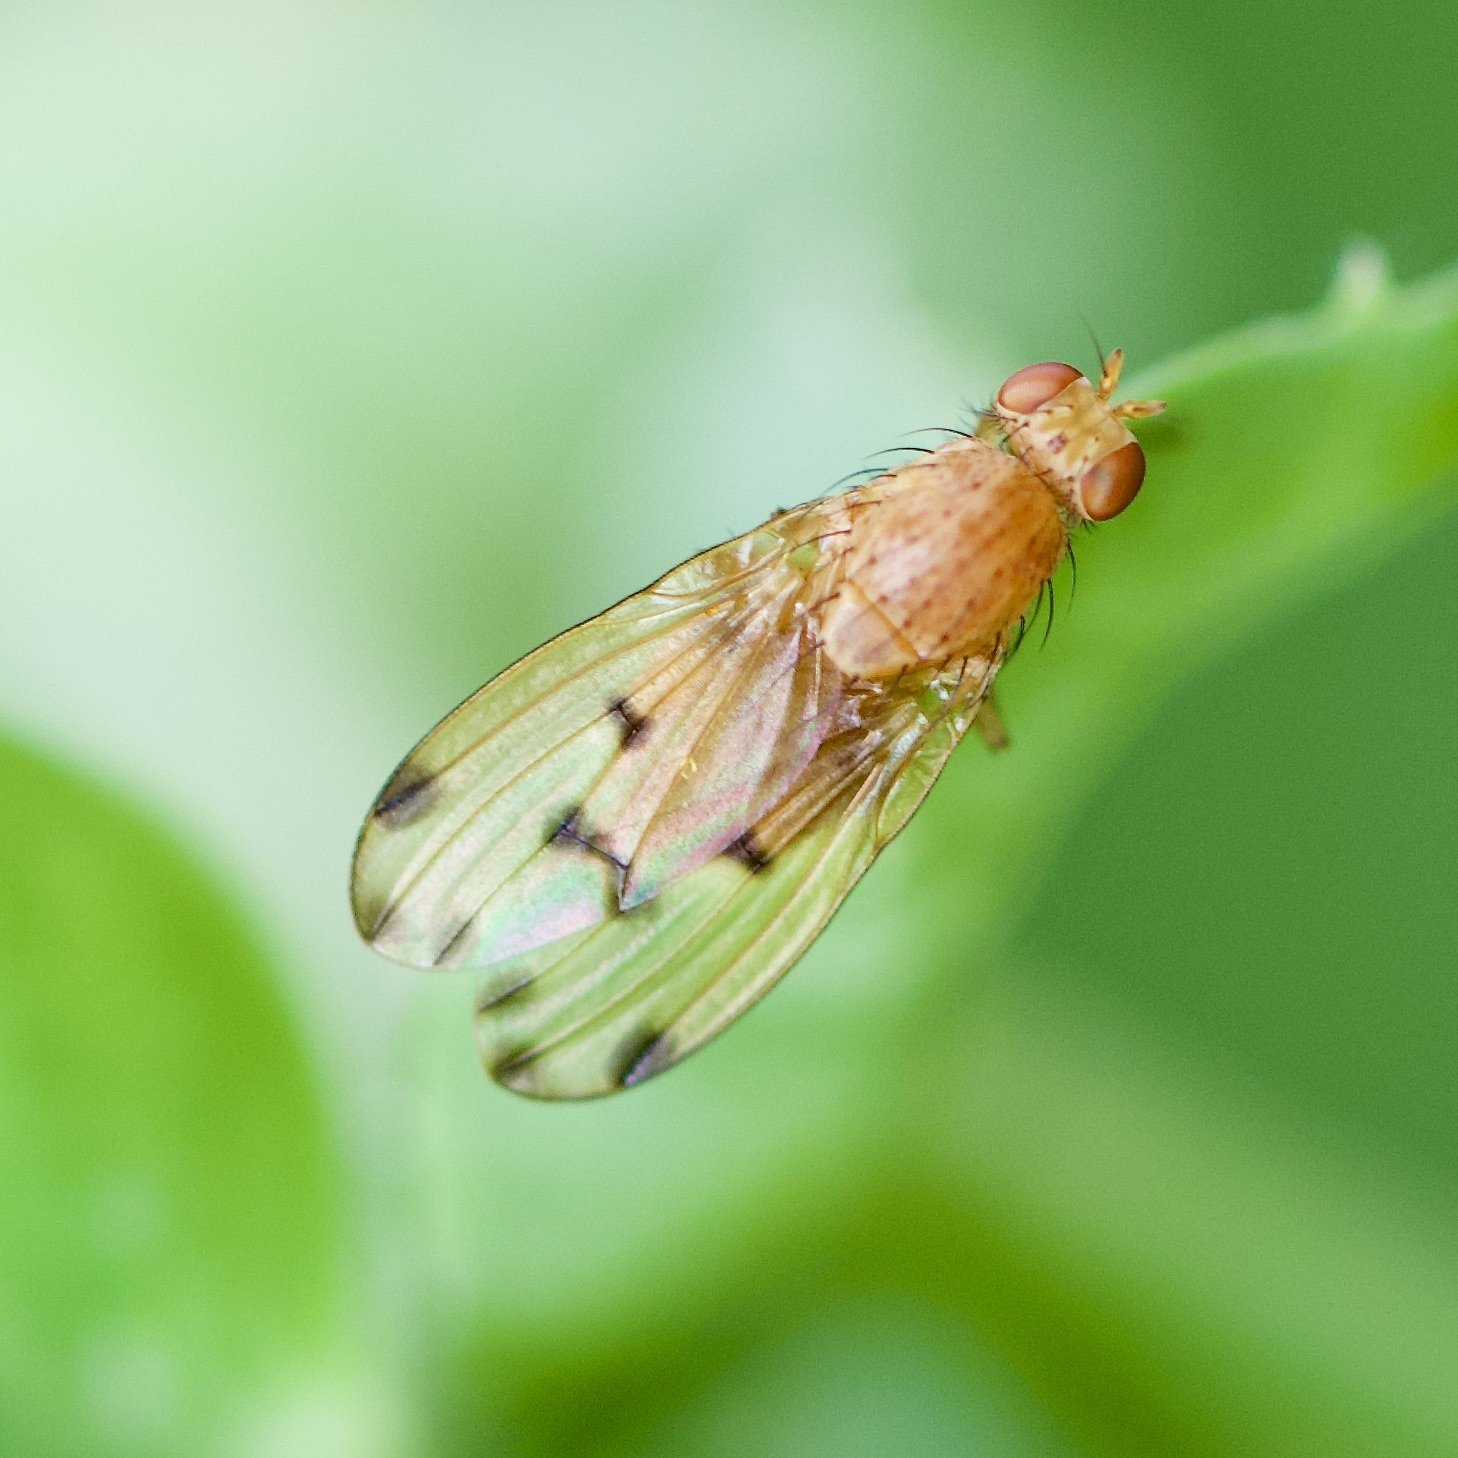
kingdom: Animalia
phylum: Arthropoda
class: Insecta
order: Diptera
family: Lauxaniidae
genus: Meiosimyza
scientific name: Meiosimyza decempunctata
